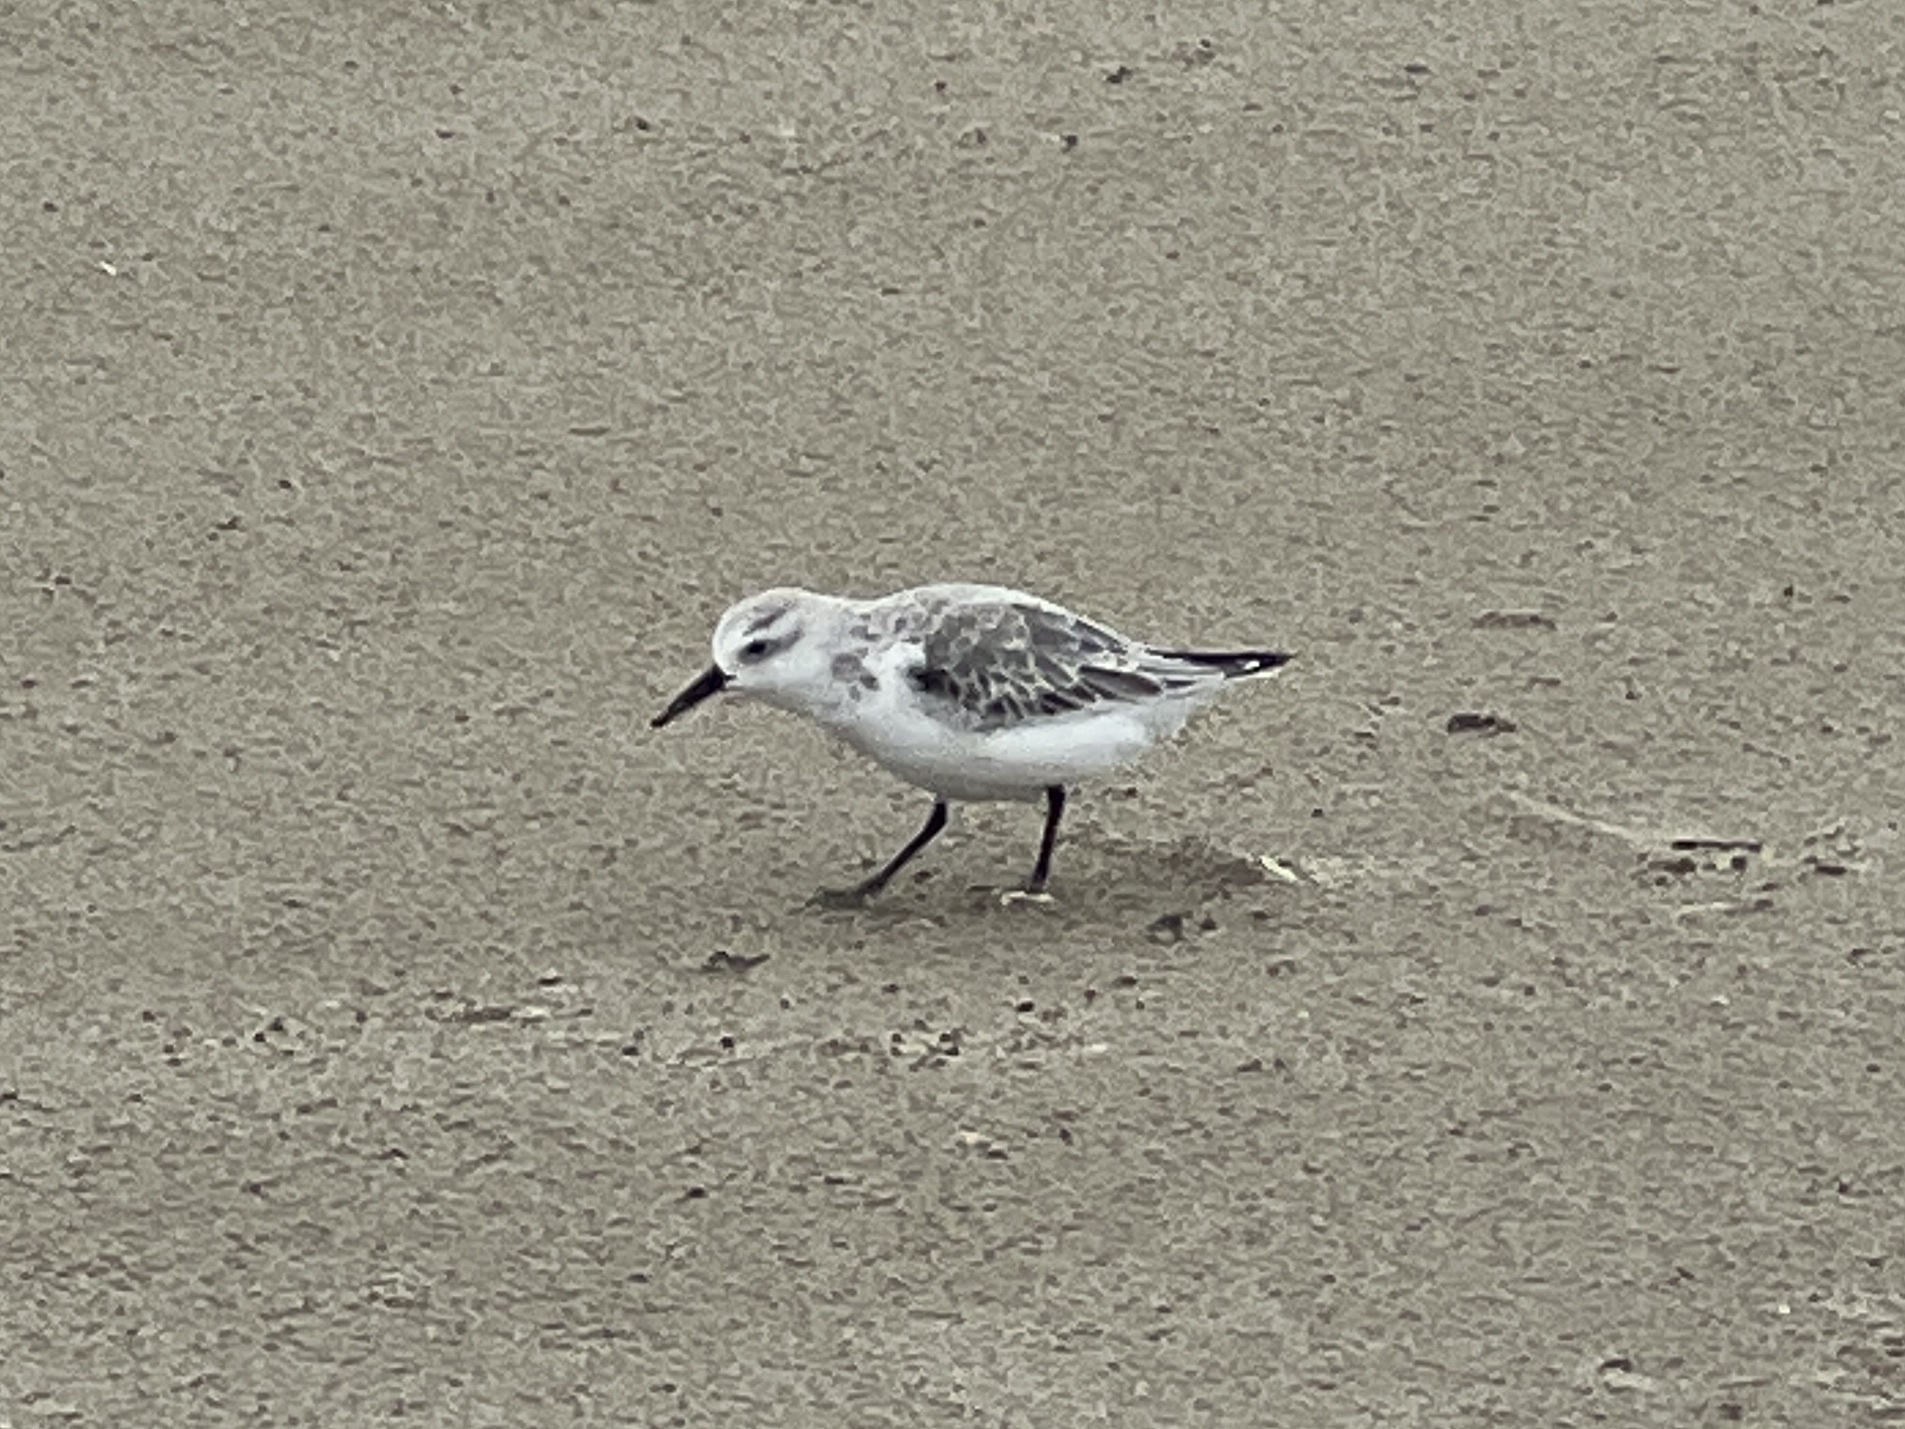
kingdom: Animalia
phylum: Chordata
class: Aves
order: Charadriiformes
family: Scolopacidae
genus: Calidris
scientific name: Calidris alba
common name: Sanderling
